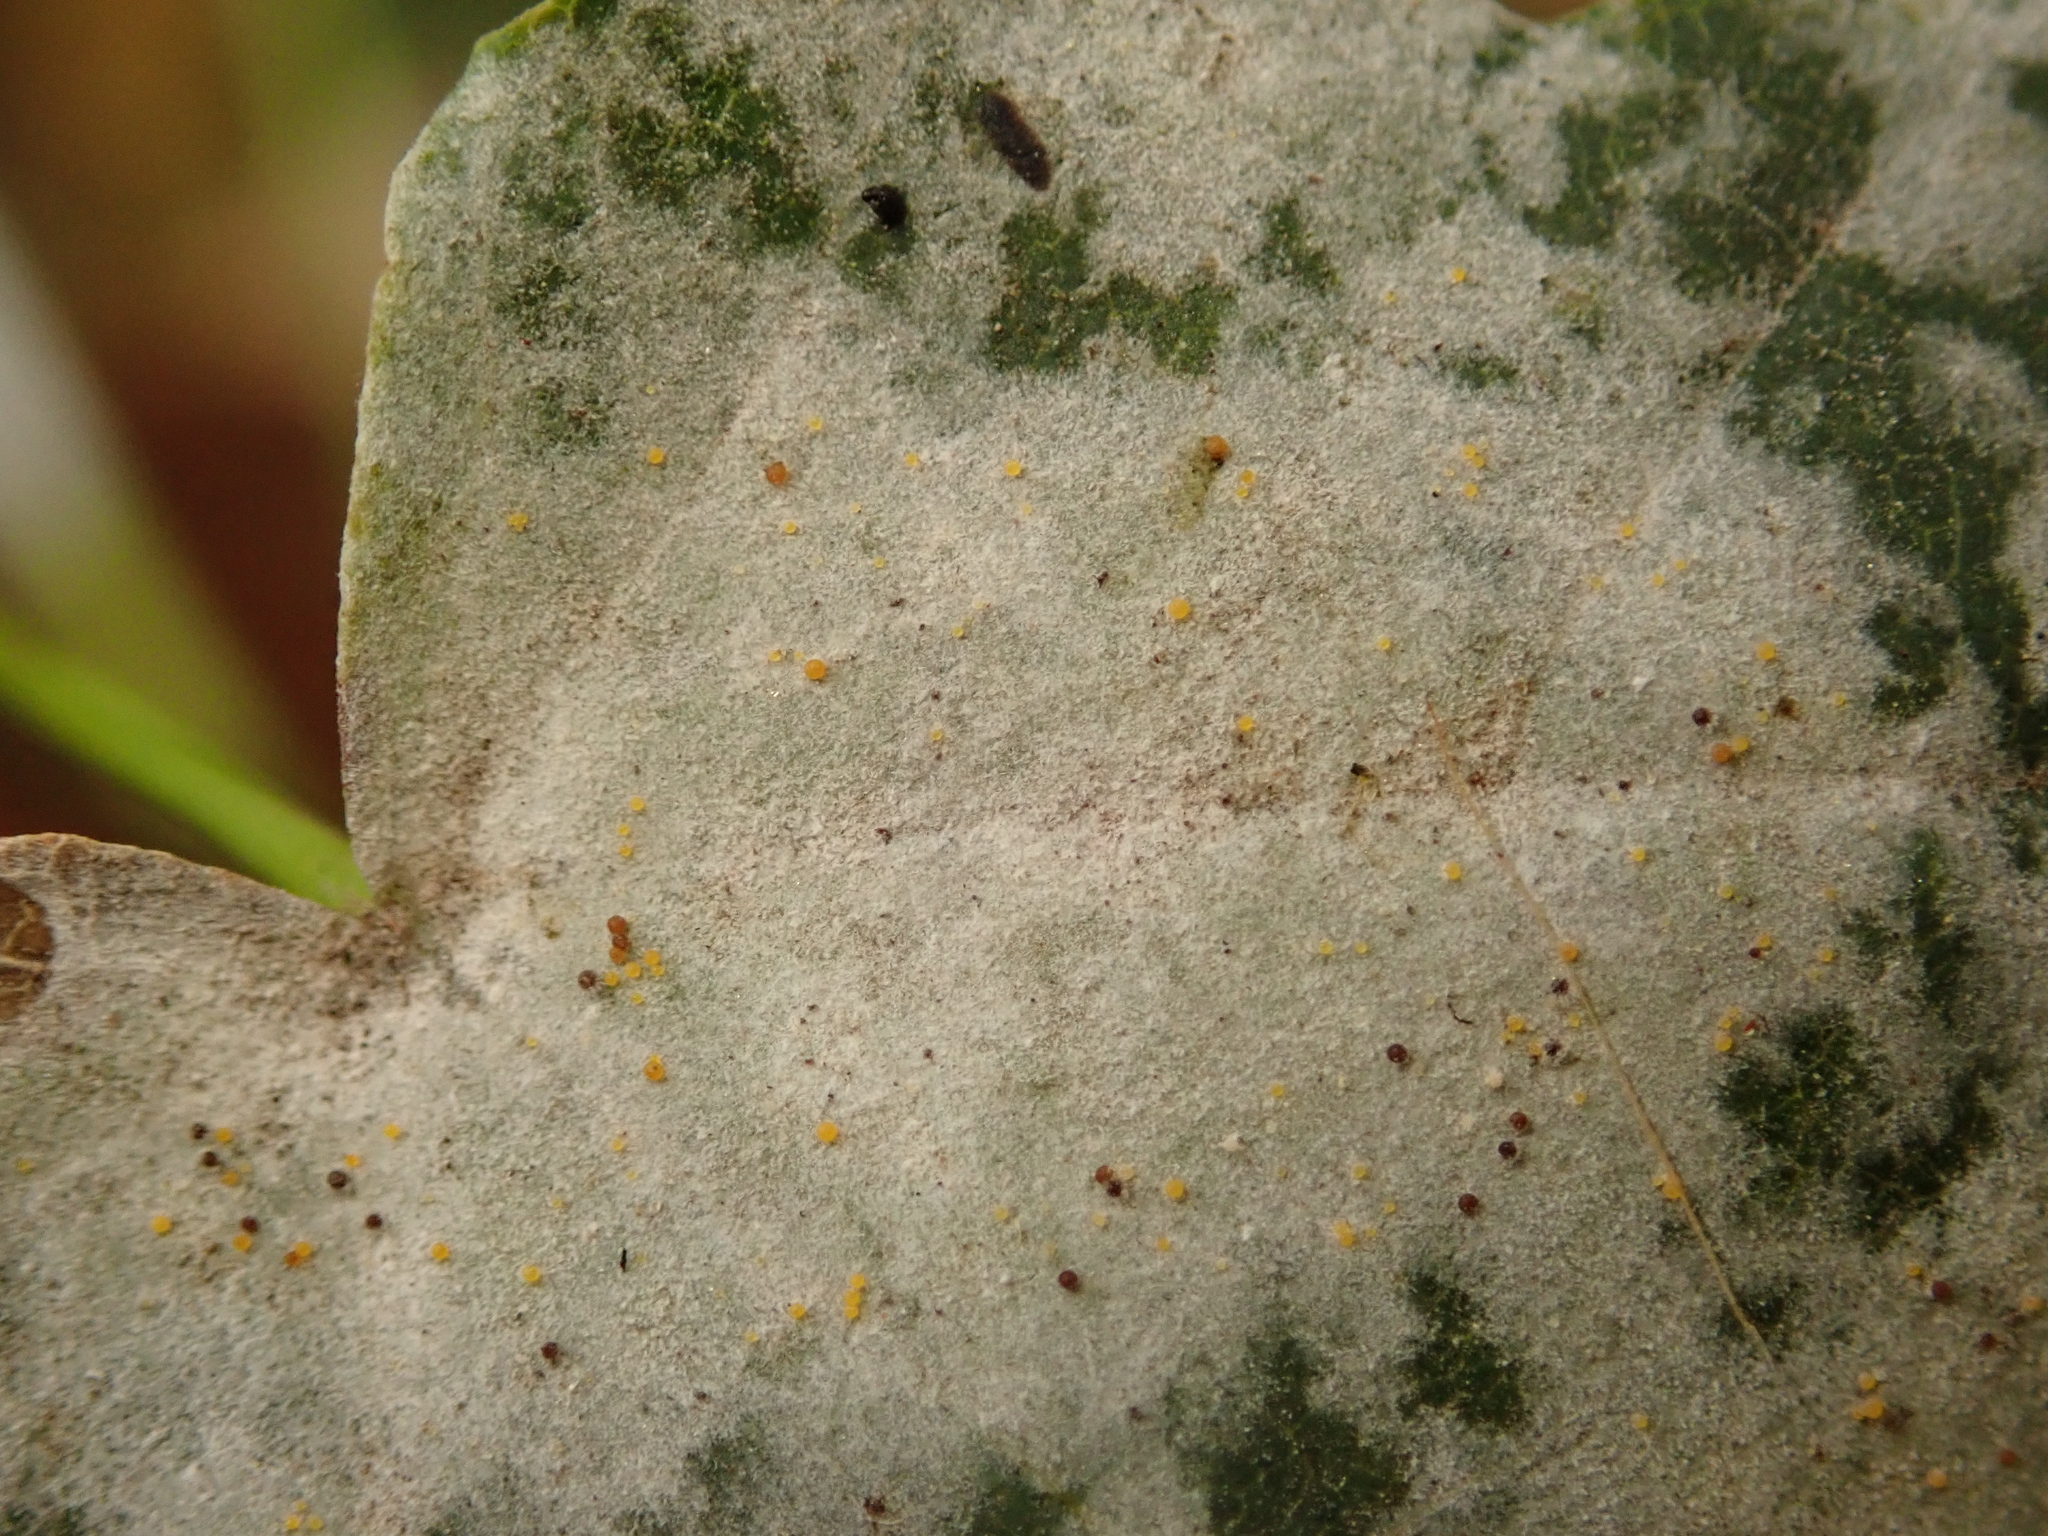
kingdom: Fungi
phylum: Ascomycota
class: Leotiomycetes
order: Helotiales
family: Erysiphaceae
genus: Sawadaea
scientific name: Sawadaea tulasnei
